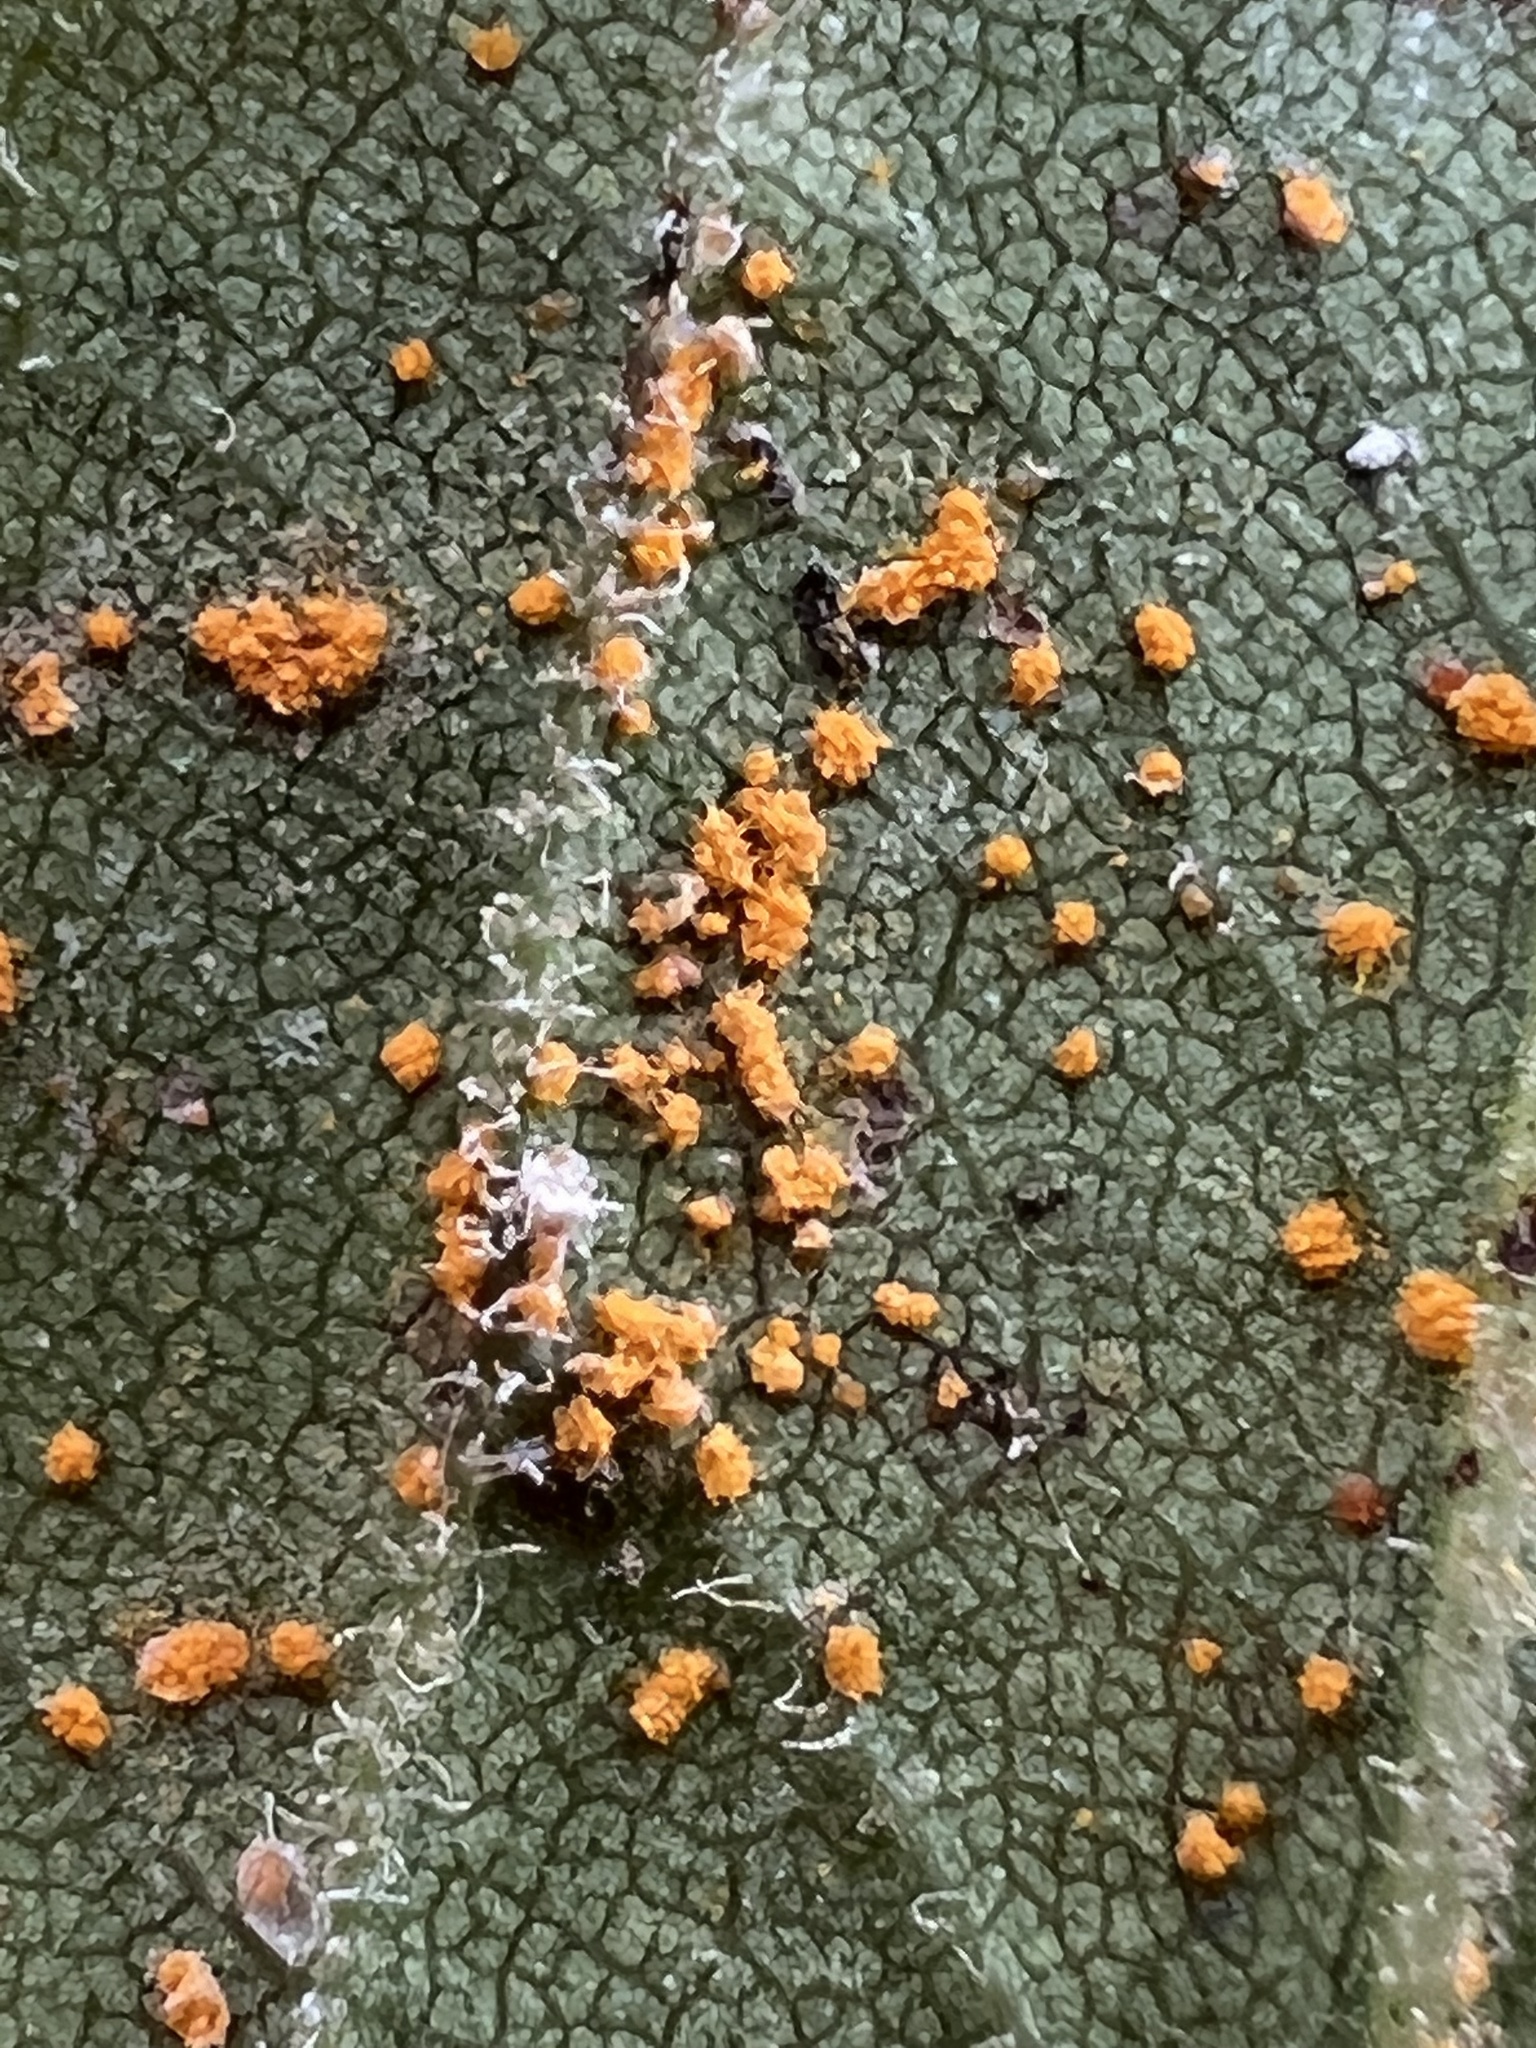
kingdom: Fungi
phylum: Basidiomycota
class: Pucciniomycetes
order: Pucciniales
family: Coleosporiaceae
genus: Coleosporium
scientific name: Coleosporium asterum
